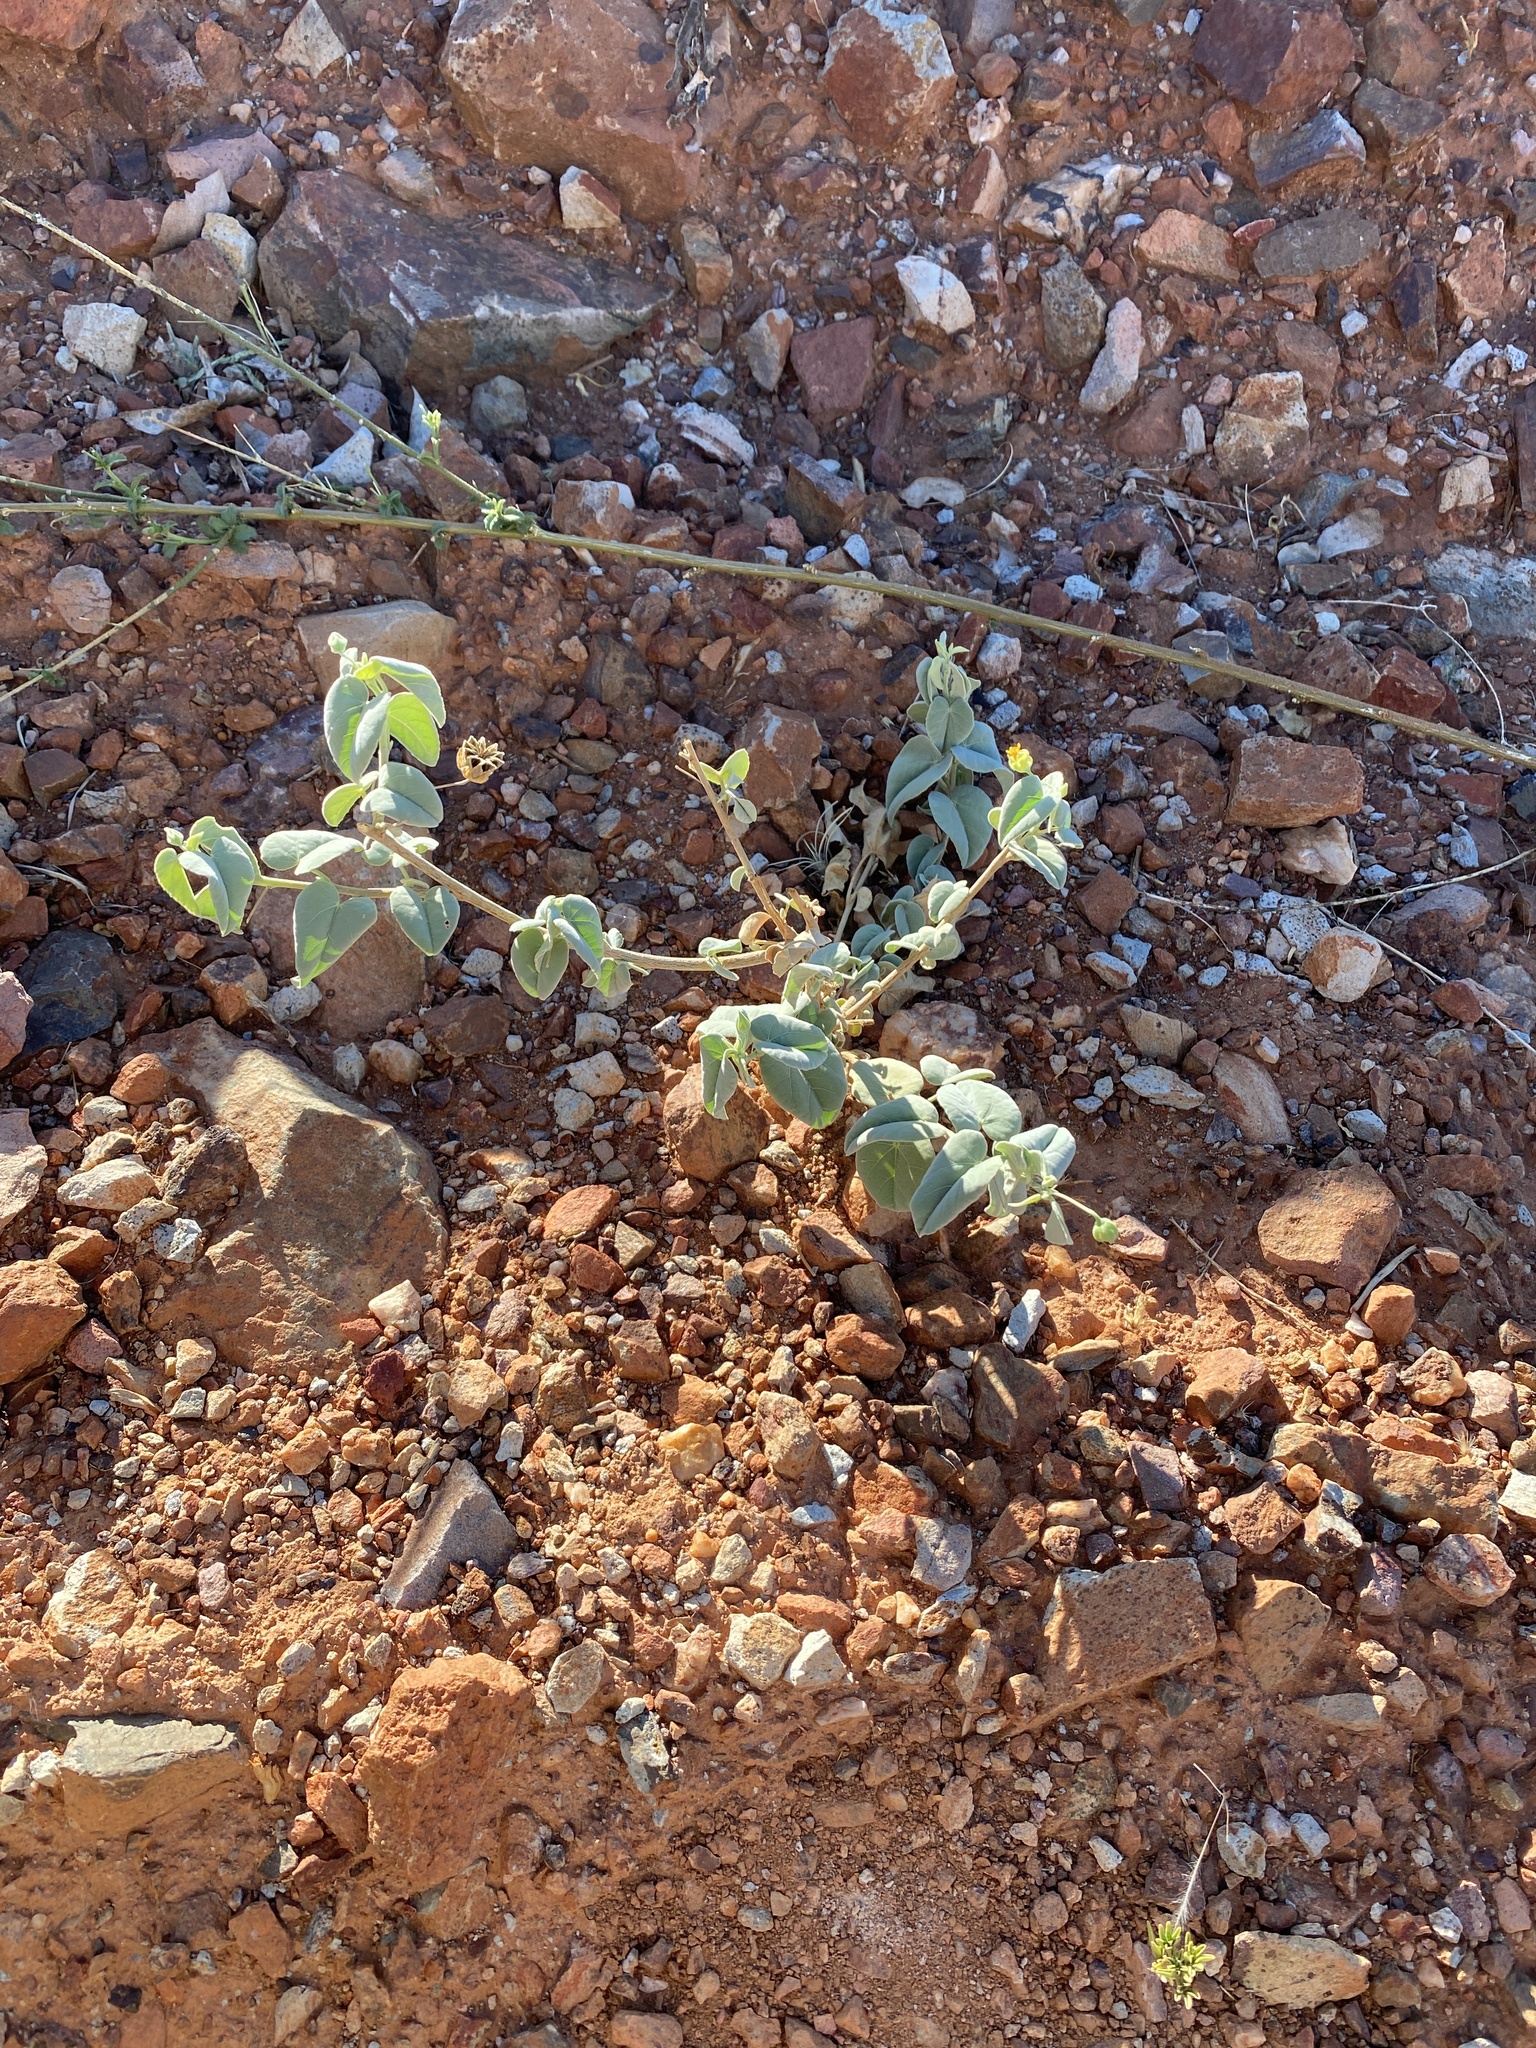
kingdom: Plantae
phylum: Tracheophyta
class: Magnoliopsida
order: Malvales
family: Malvaceae
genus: Abutilon
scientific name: Abutilon fruticosum
